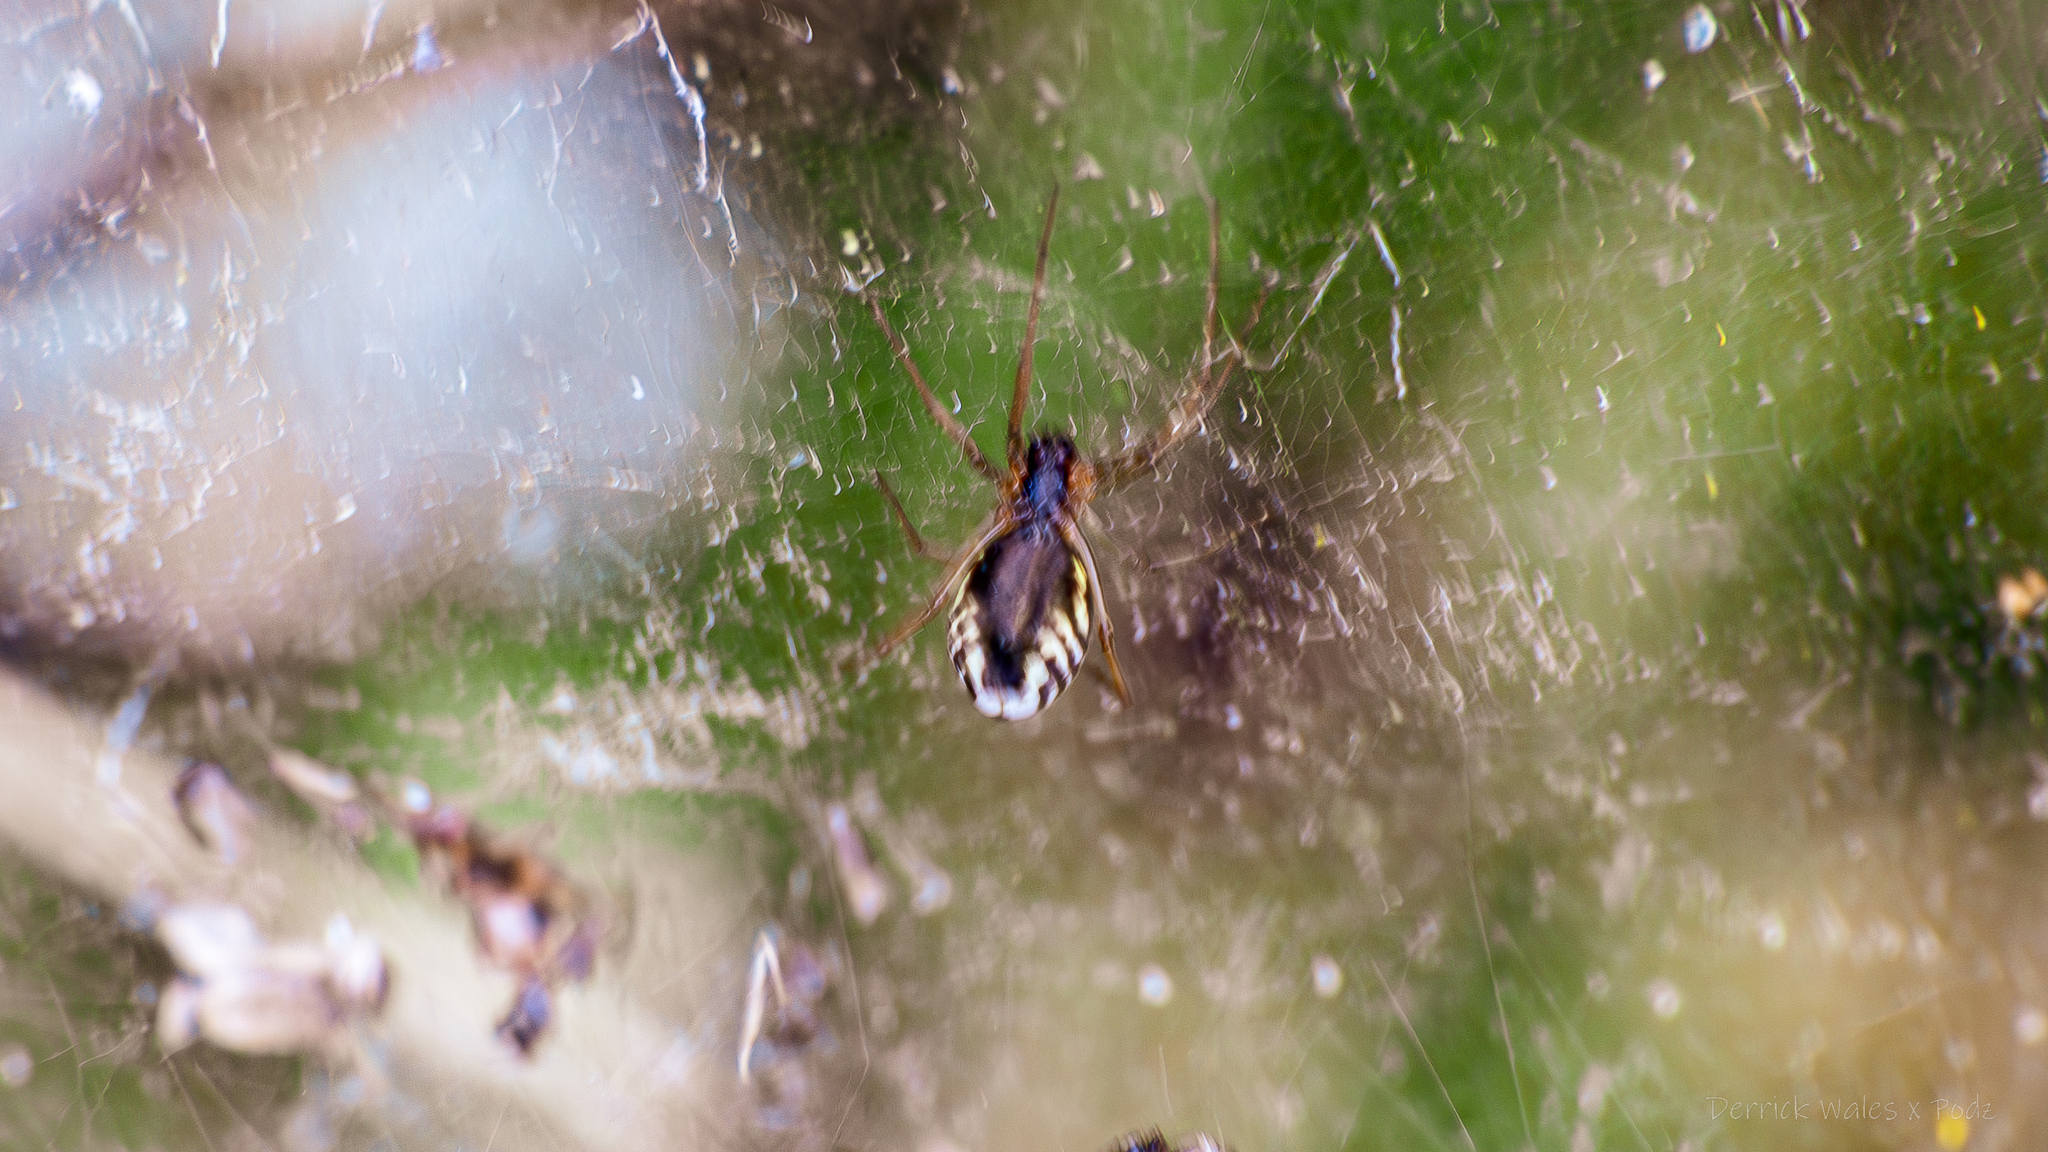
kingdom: Animalia
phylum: Arthropoda
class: Arachnida
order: Araneae
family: Linyphiidae
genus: Frontinella
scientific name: Frontinella pyramitela
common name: Bowl-and-doily spider
